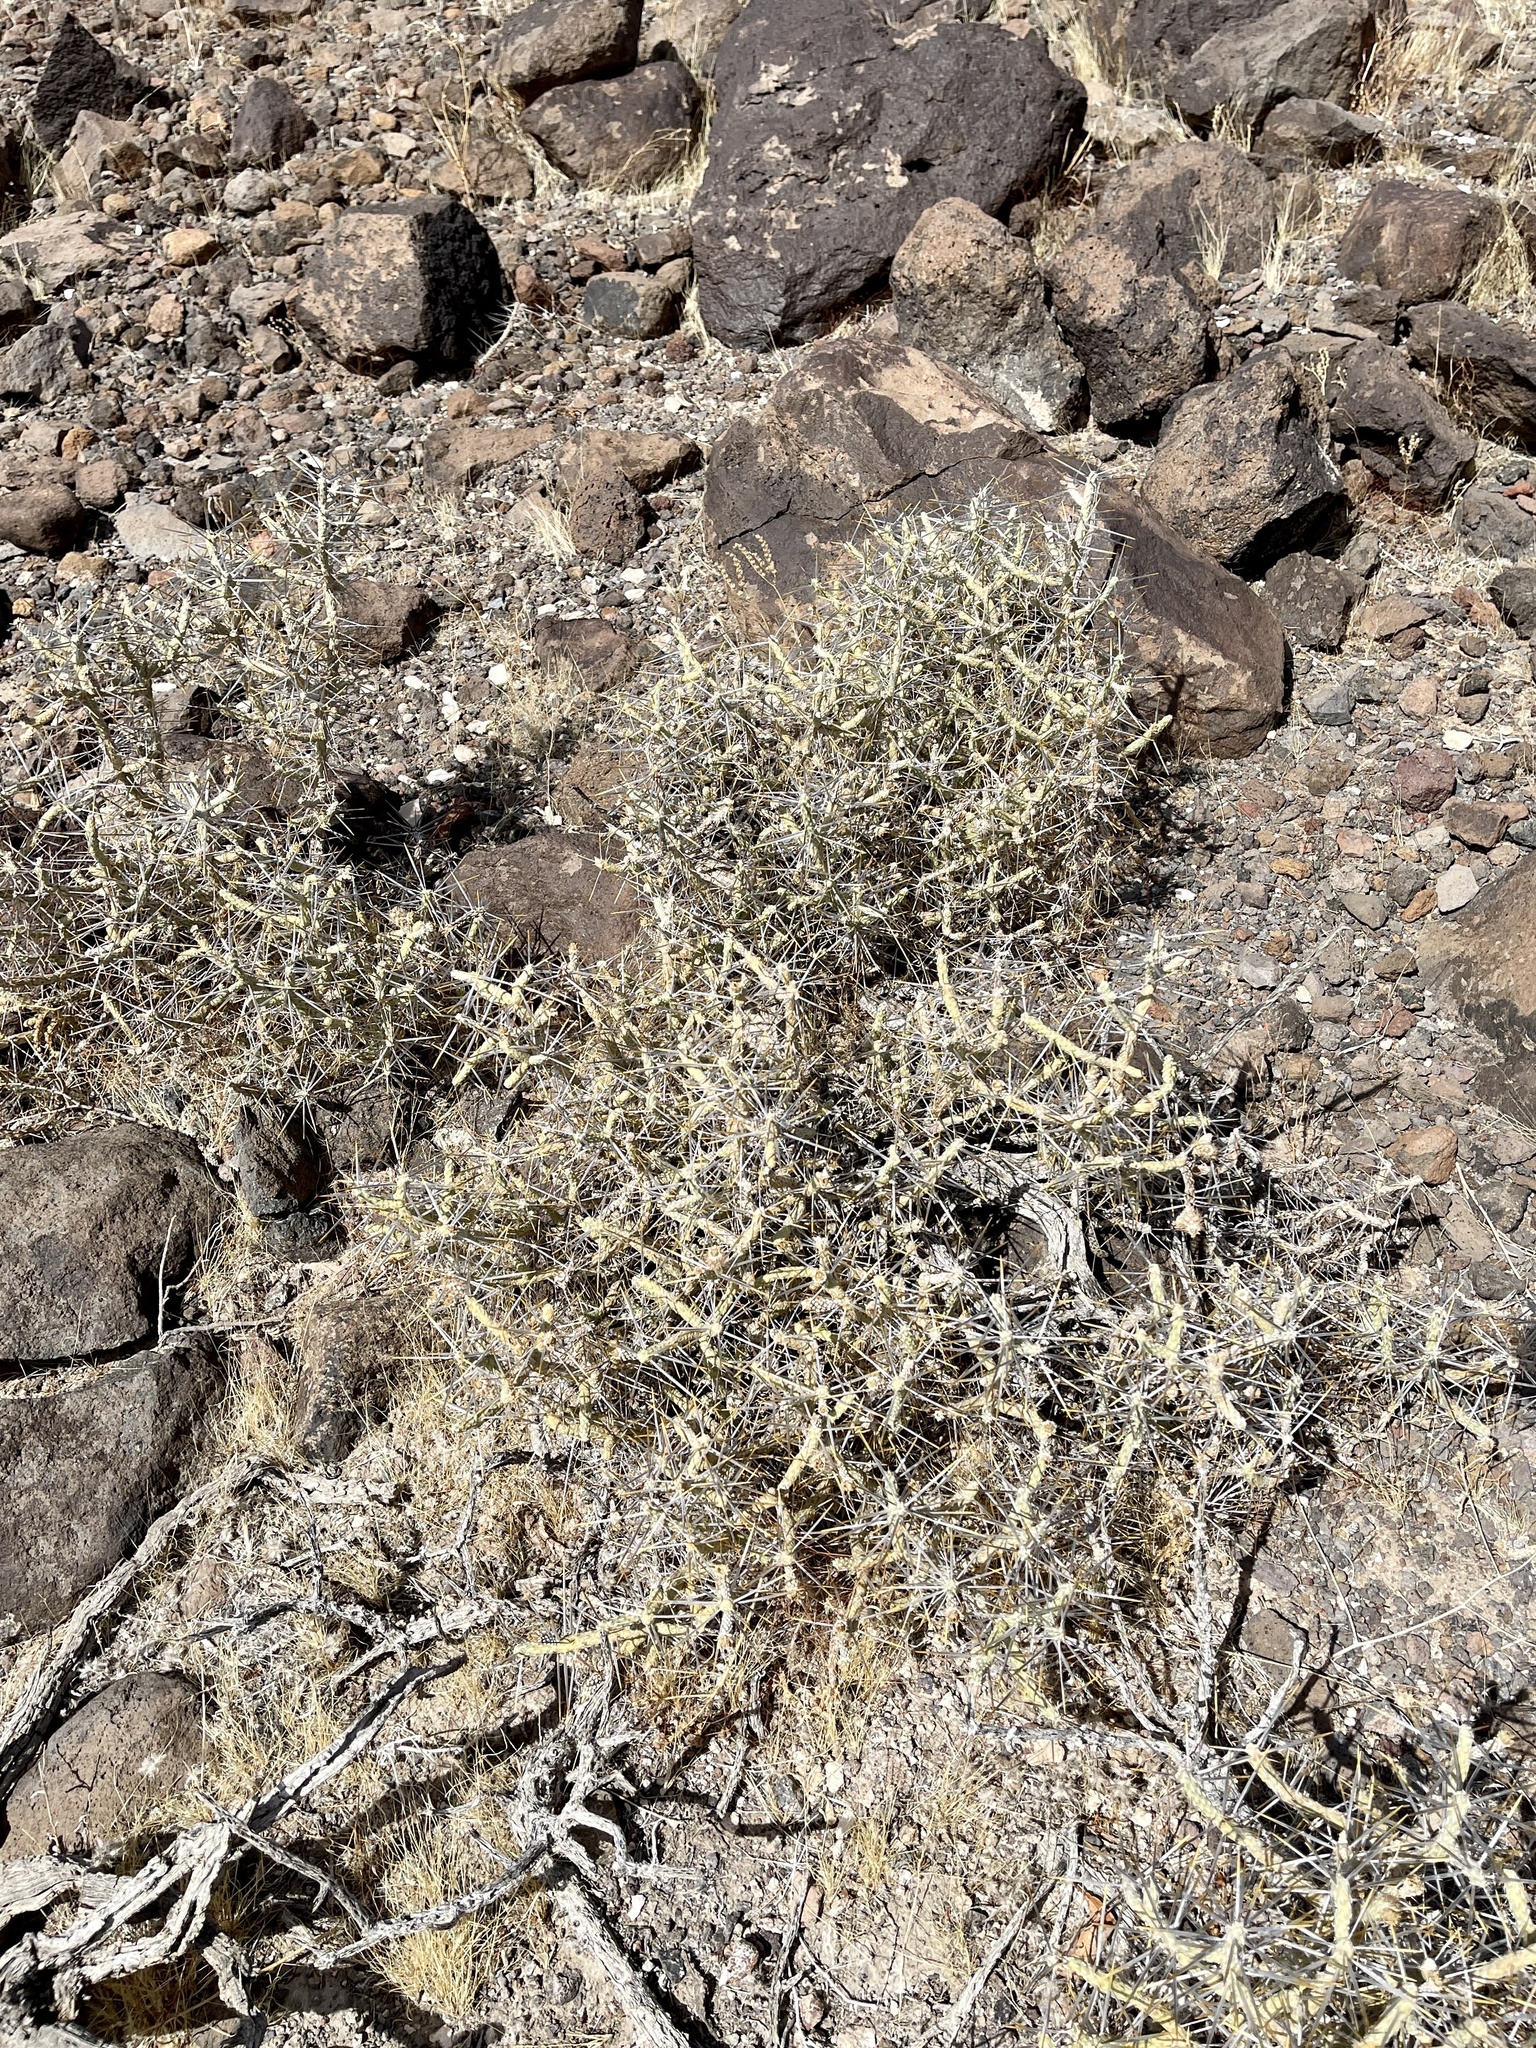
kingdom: Plantae
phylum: Tracheophyta
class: Magnoliopsida
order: Caryophyllales
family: Cactaceae
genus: Cylindropuntia
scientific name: Cylindropuntia ramosissima
